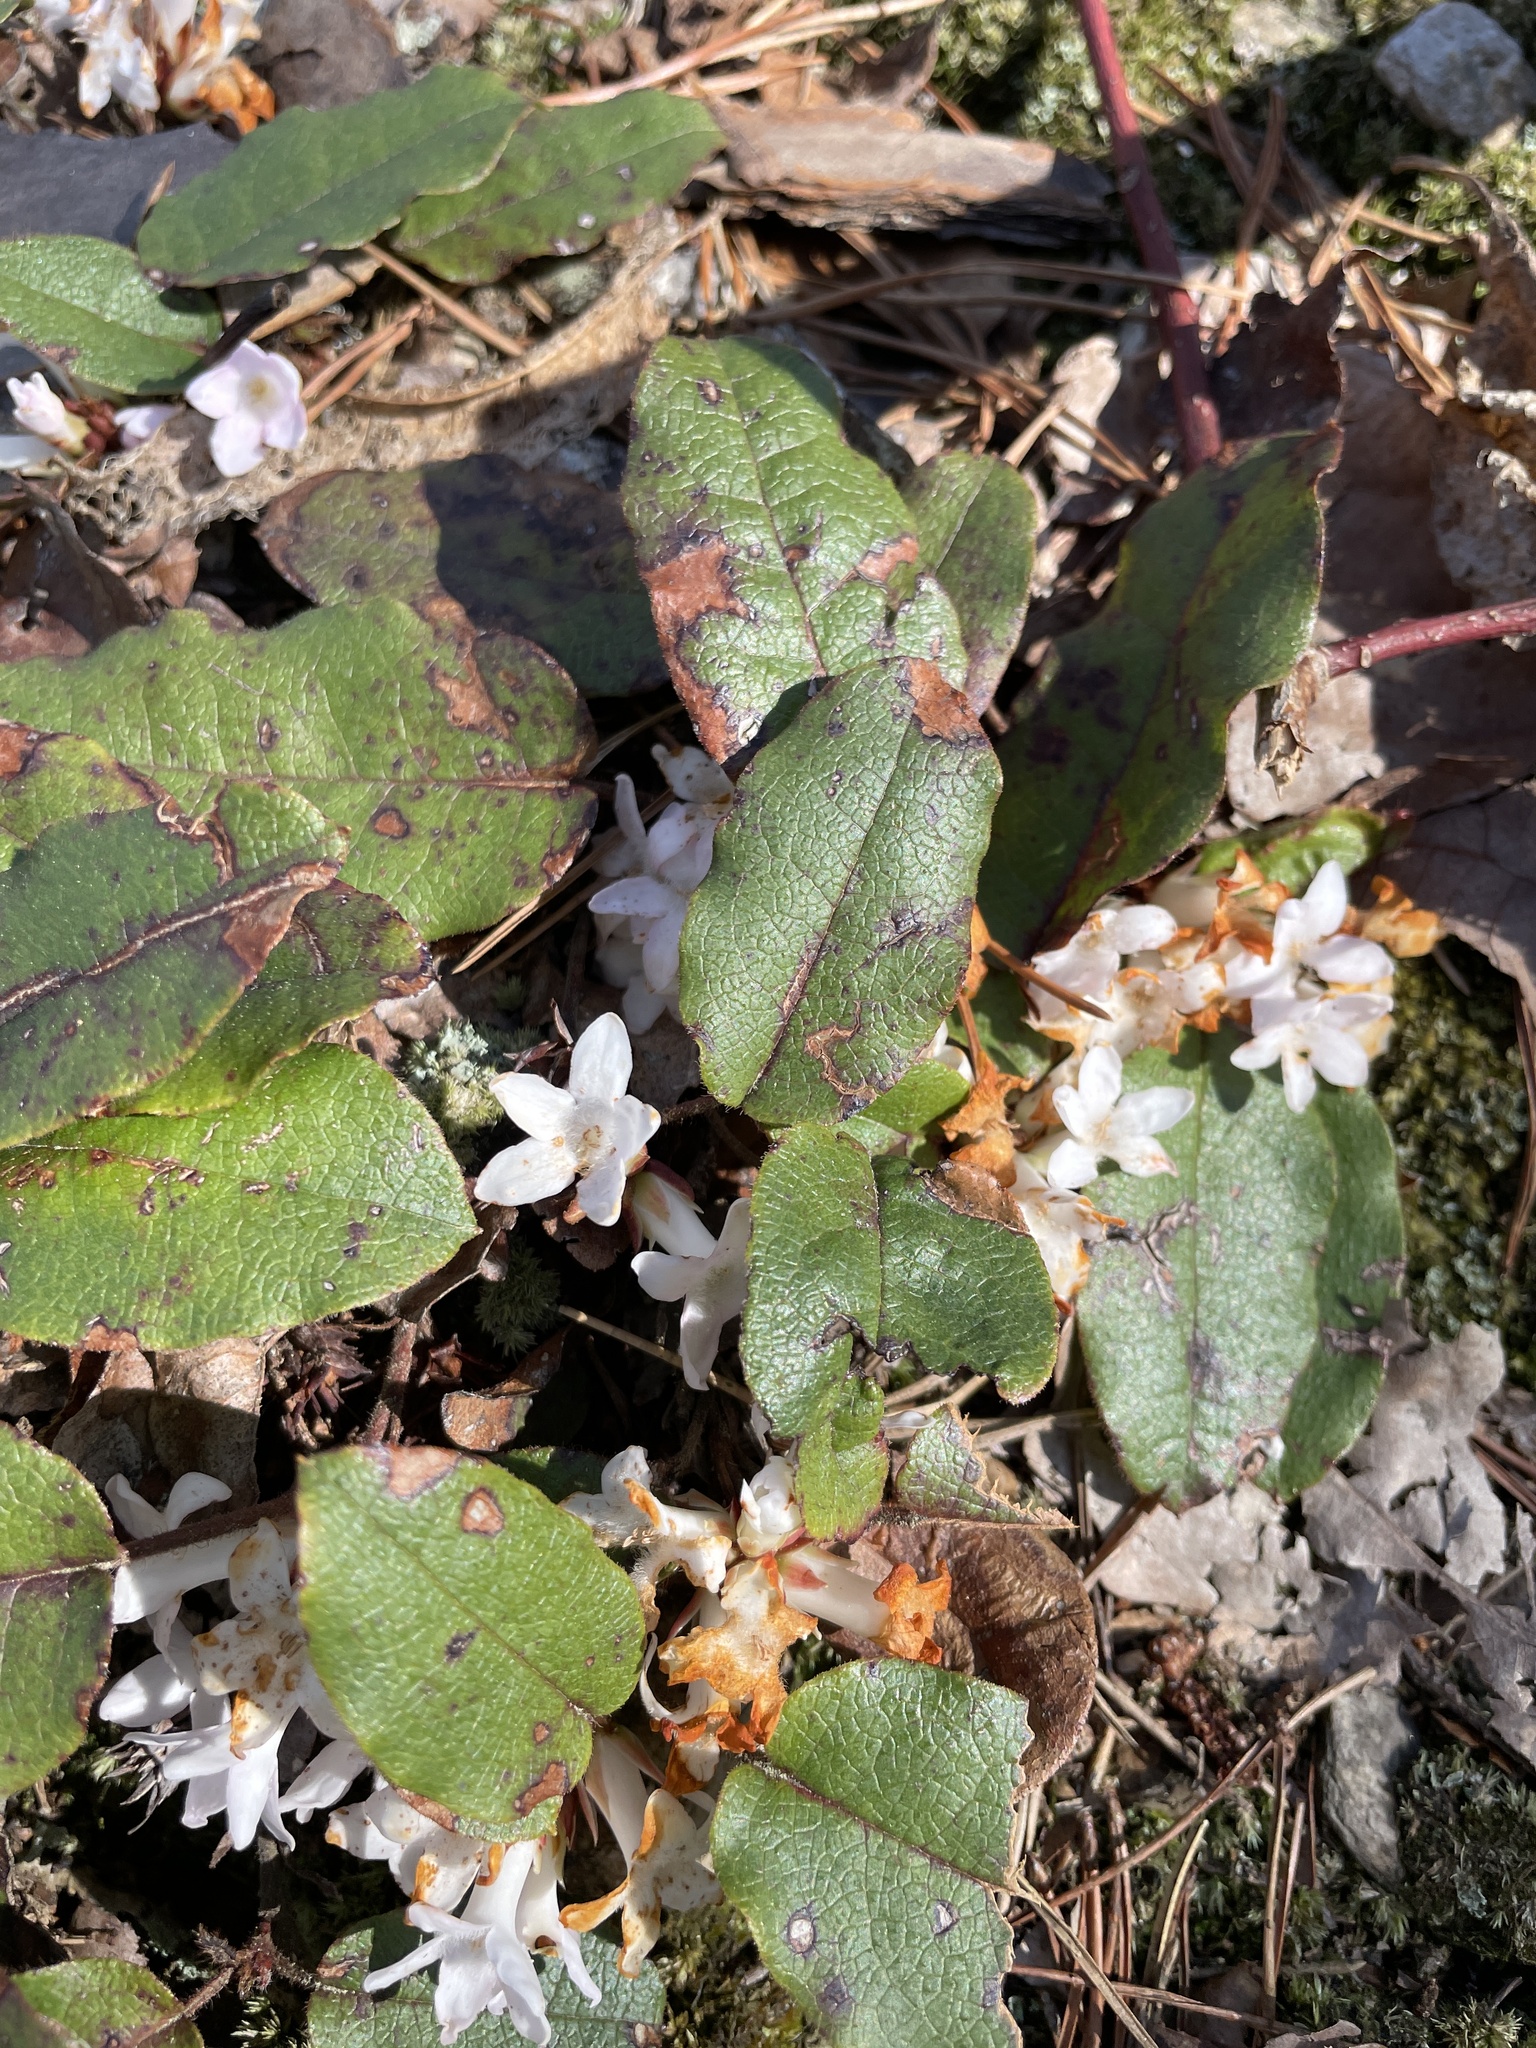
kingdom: Plantae
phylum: Tracheophyta
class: Magnoliopsida
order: Ericales
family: Ericaceae
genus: Epigaea
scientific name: Epigaea repens
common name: Gravelroot
